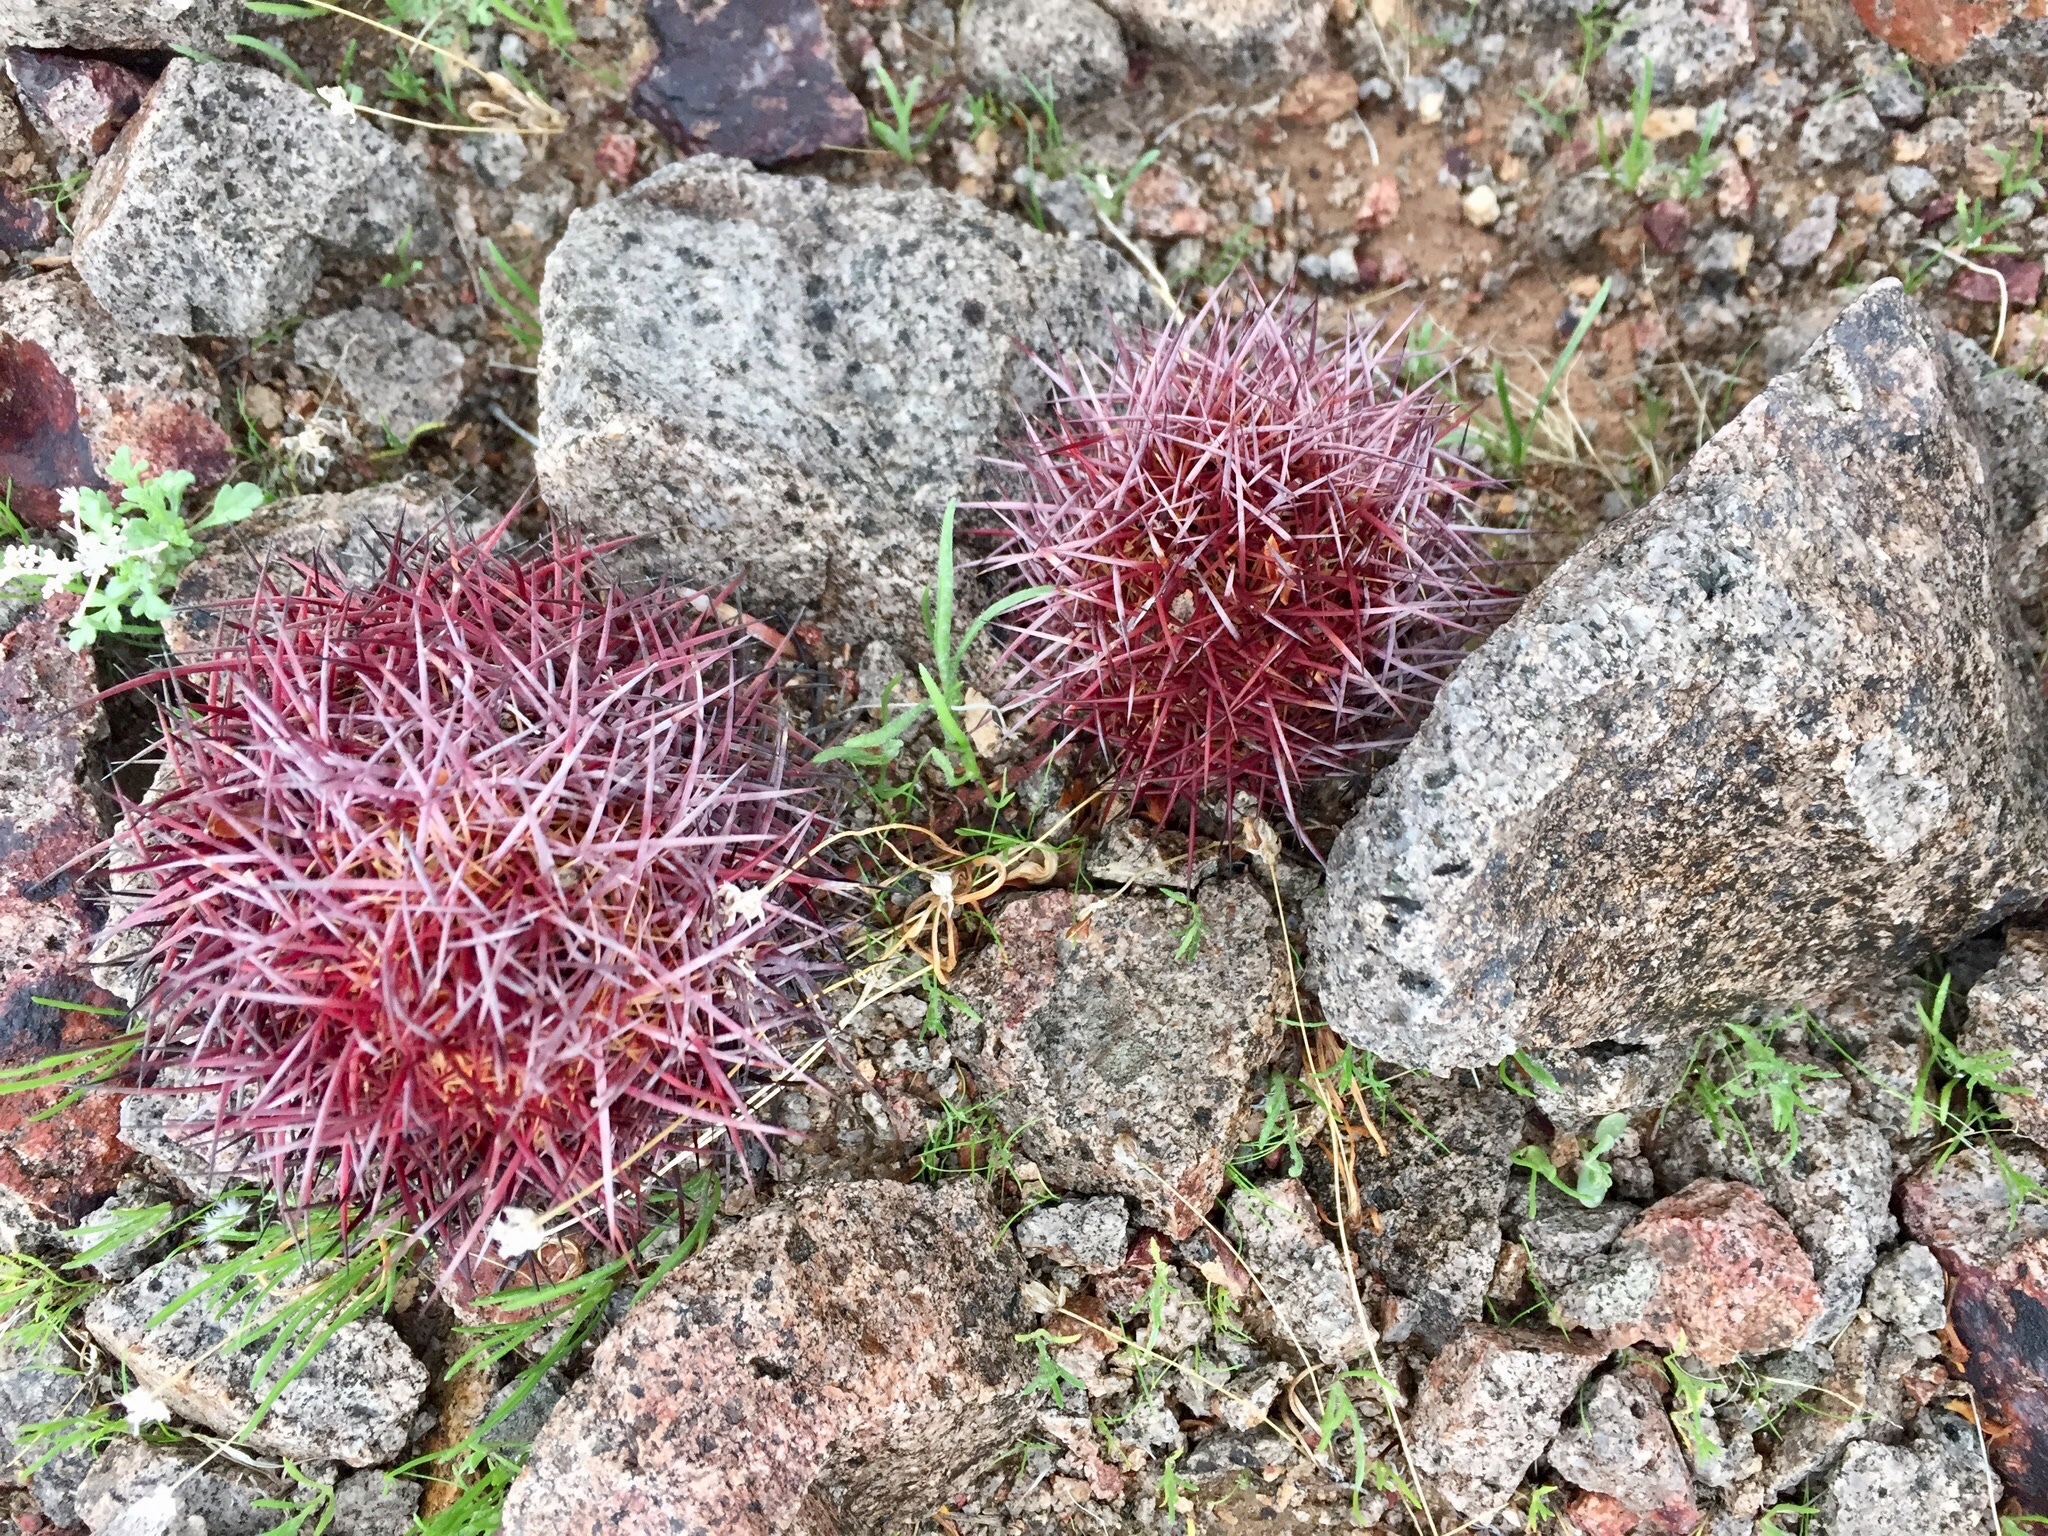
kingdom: Plantae
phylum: Tracheophyta
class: Magnoliopsida
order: Caryophyllales
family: Cactaceae
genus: Sclerocactus
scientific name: Sclerocactus johnsonii
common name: Eight-spine fishhook cactus
